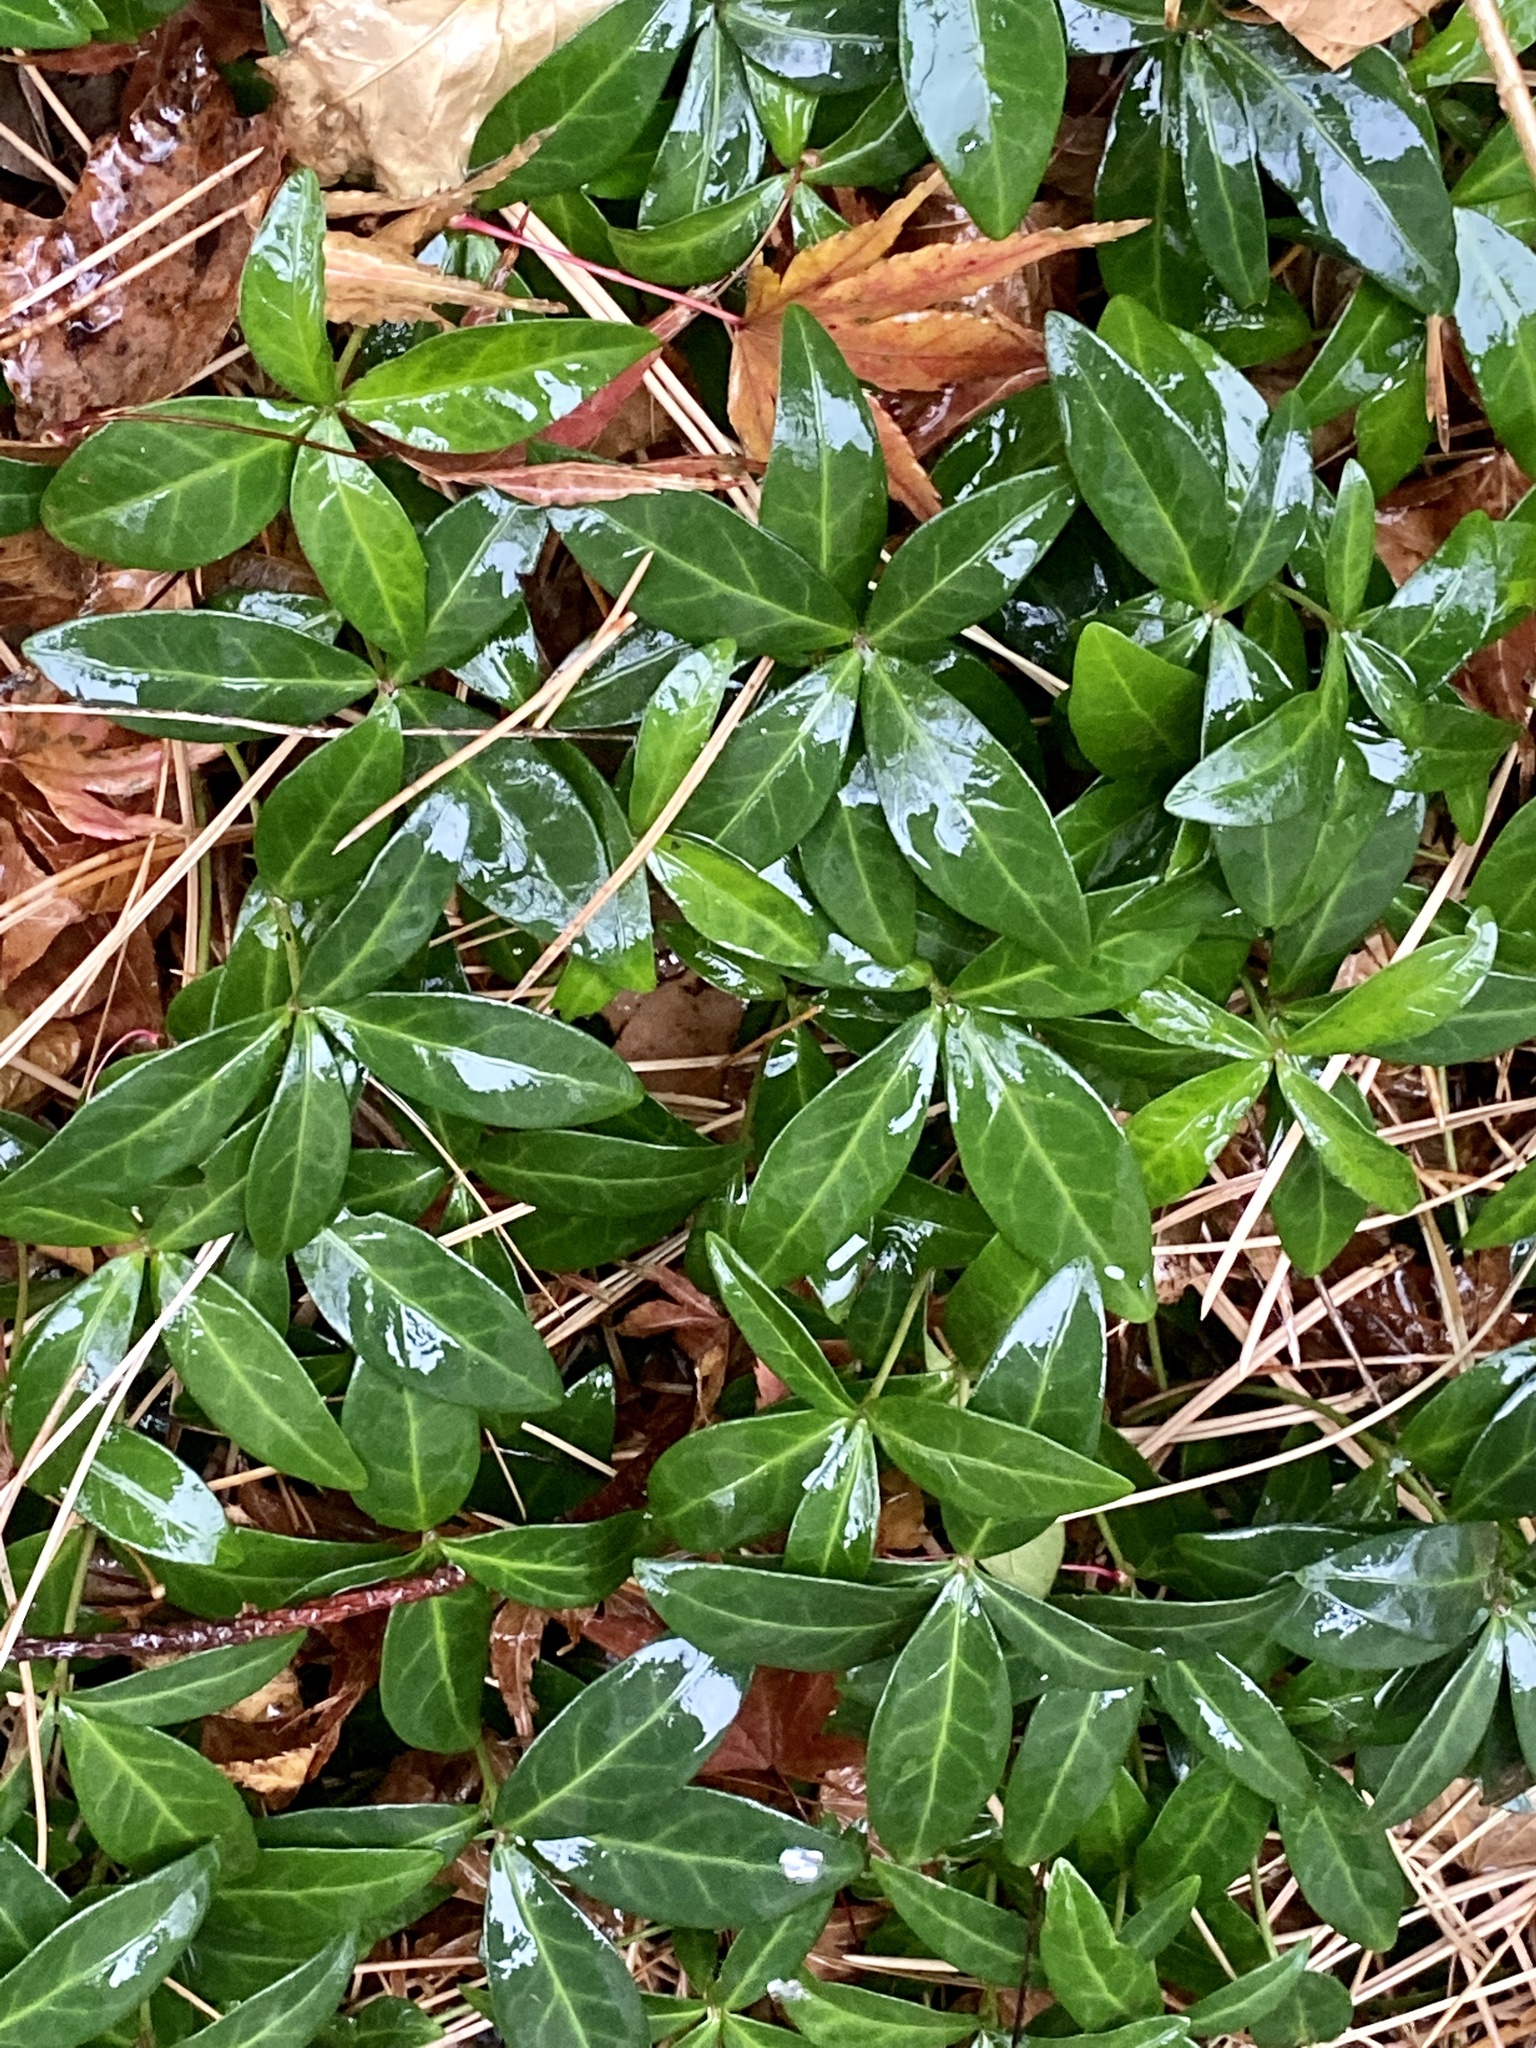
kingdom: Plantae
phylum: Tracheophyta
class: Magnoliopsida
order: Gentianales
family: Apocynaceae
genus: Vinca
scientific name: Vinca minor
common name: Lesser periwinkle
